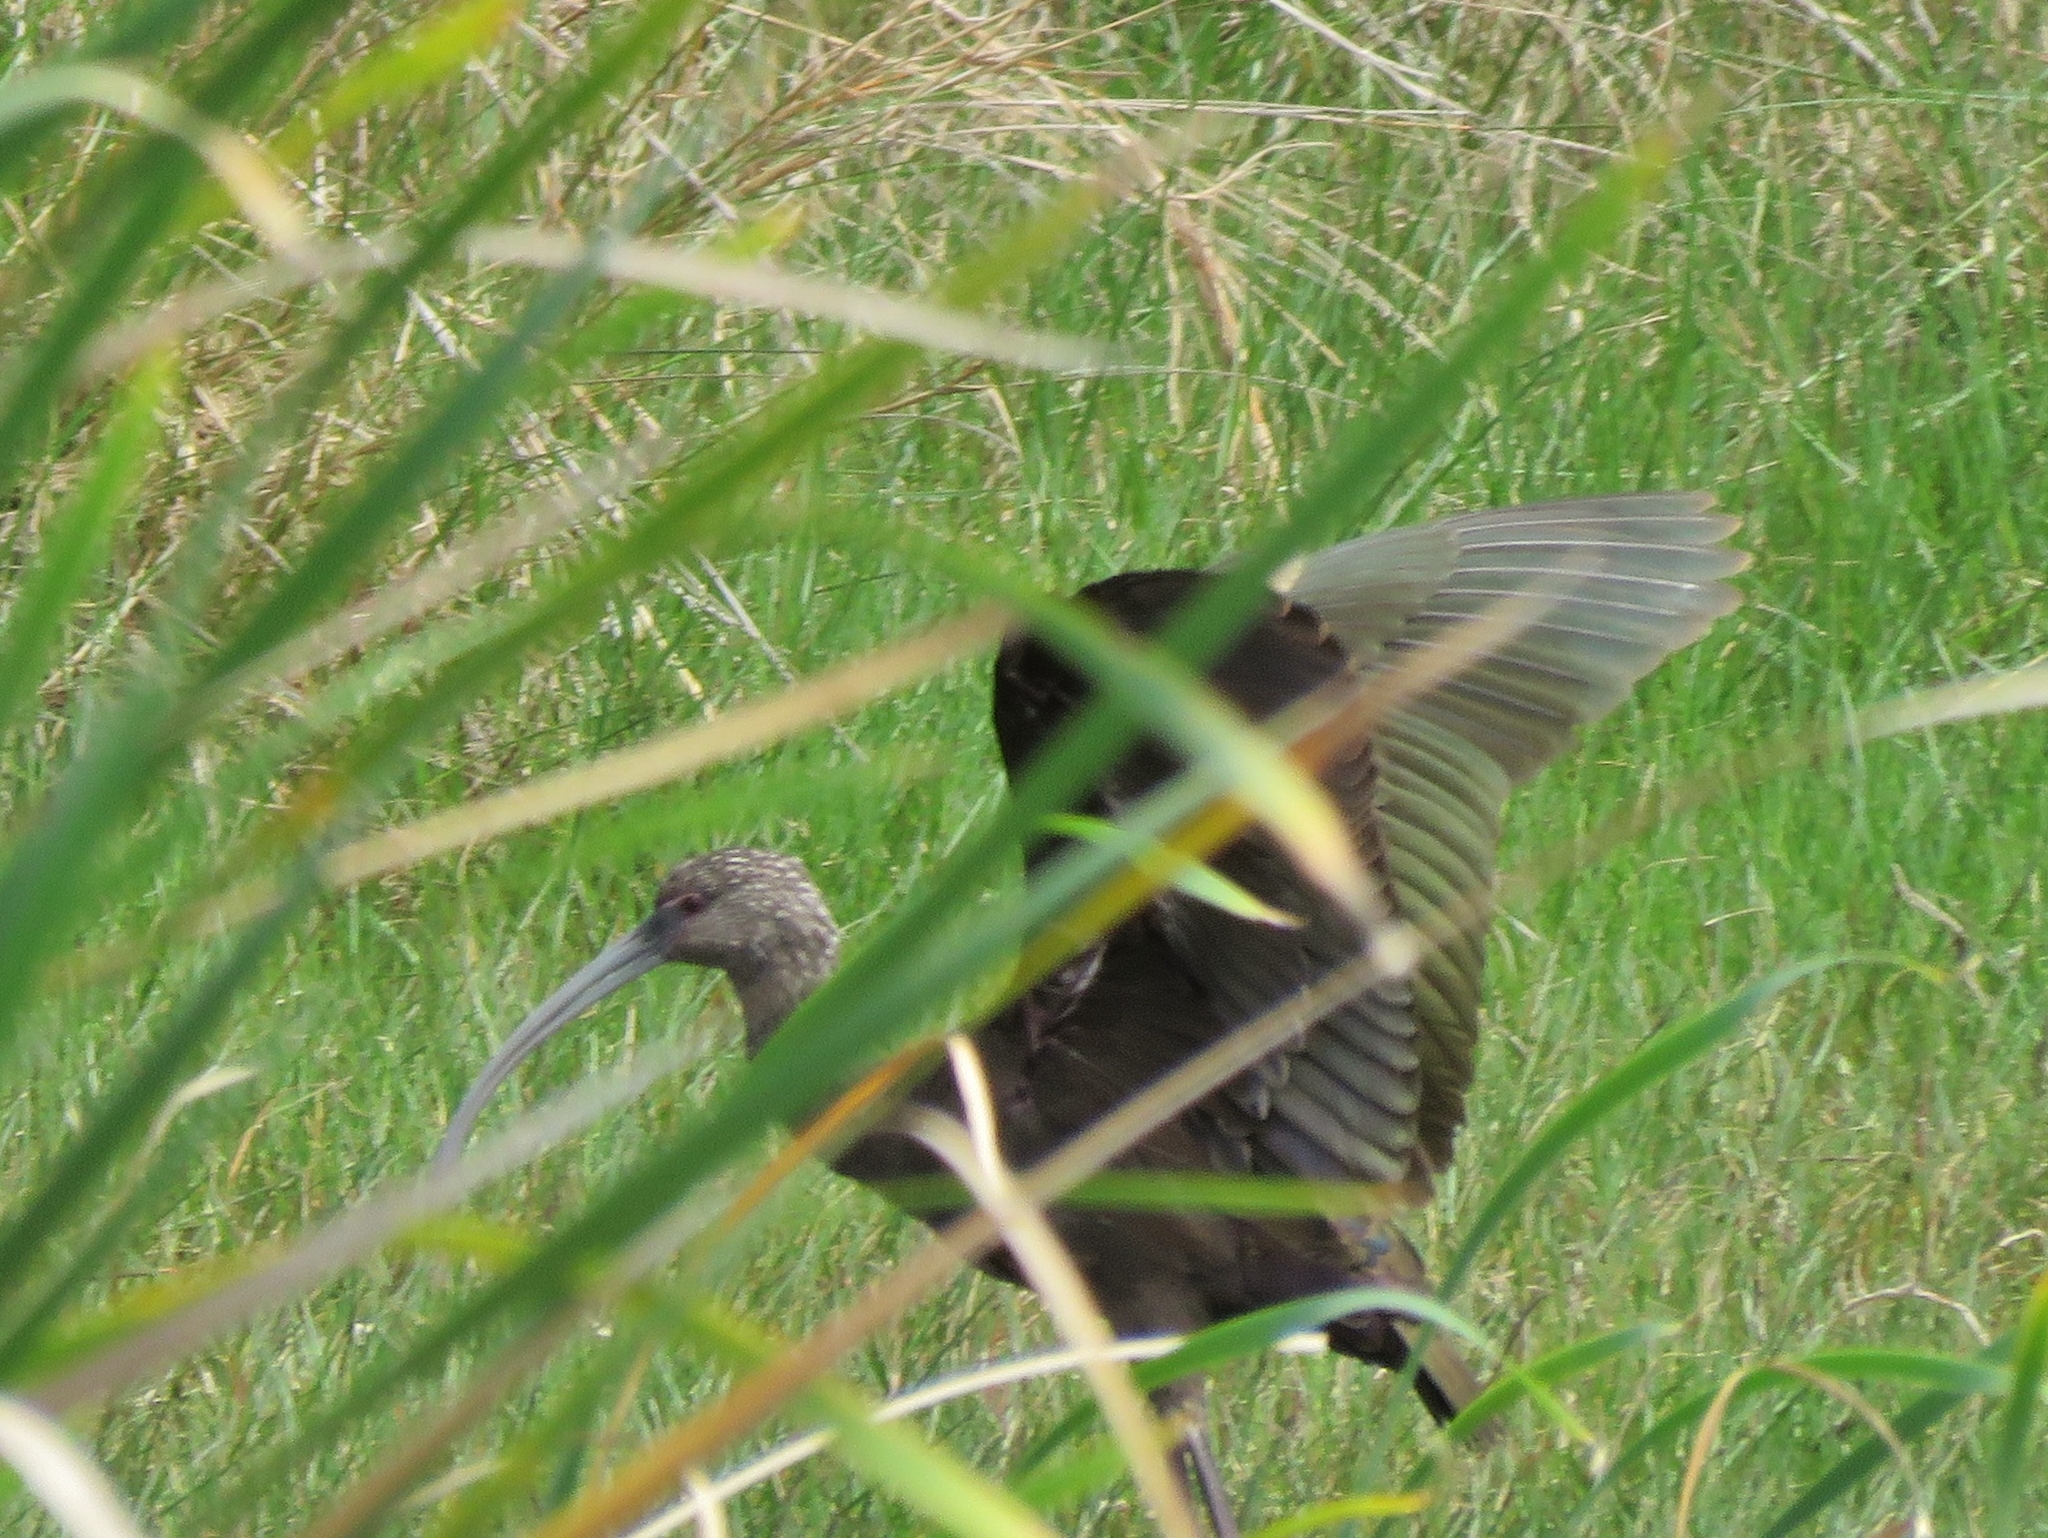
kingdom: Animalia
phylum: Chordata
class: Aves
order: Pelecaniformes
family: Threskiornithidae
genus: Plegadis
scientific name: Plegadis chihi
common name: White-faced ibis
